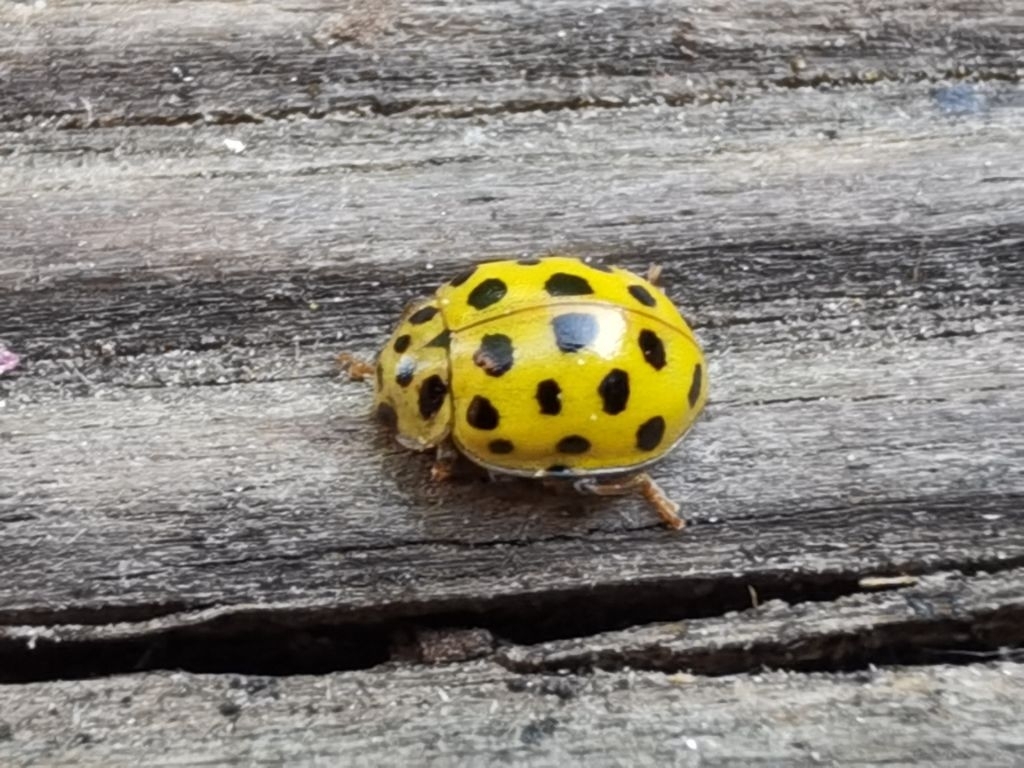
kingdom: Animalia
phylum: Arthropoda
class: Insecta
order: Coleoptera
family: Coccinellidae
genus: Psyllobora
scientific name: Psyllobora vigintiduopunctata
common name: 22-spot ladybird
